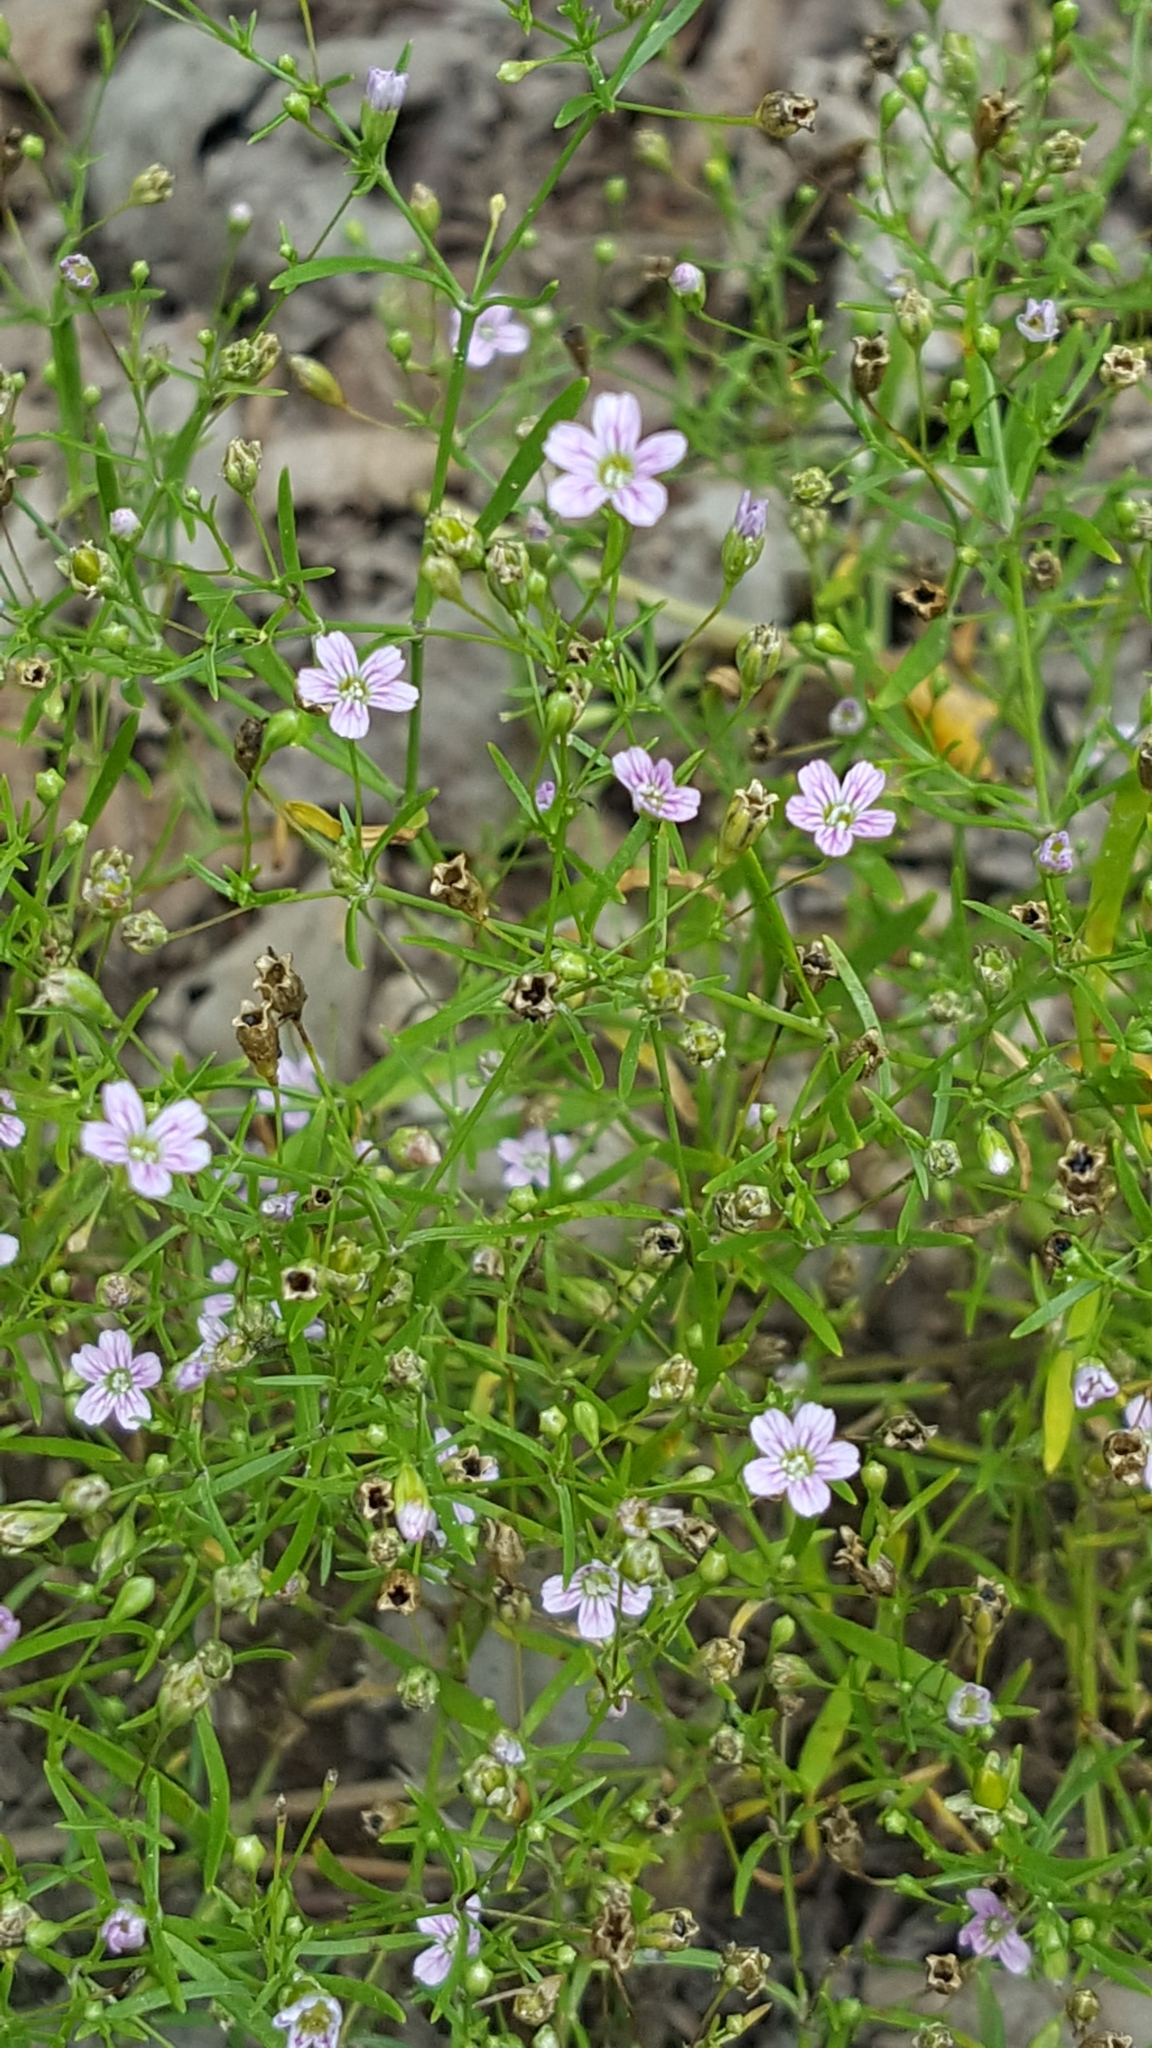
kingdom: Plantae
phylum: Tracheophyta
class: Magnoliopsida
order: Caryophyllales
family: Caryophyllaceae
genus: Psammophiliella
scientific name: Psammophiliella muralis
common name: Cushion baby's-breath
